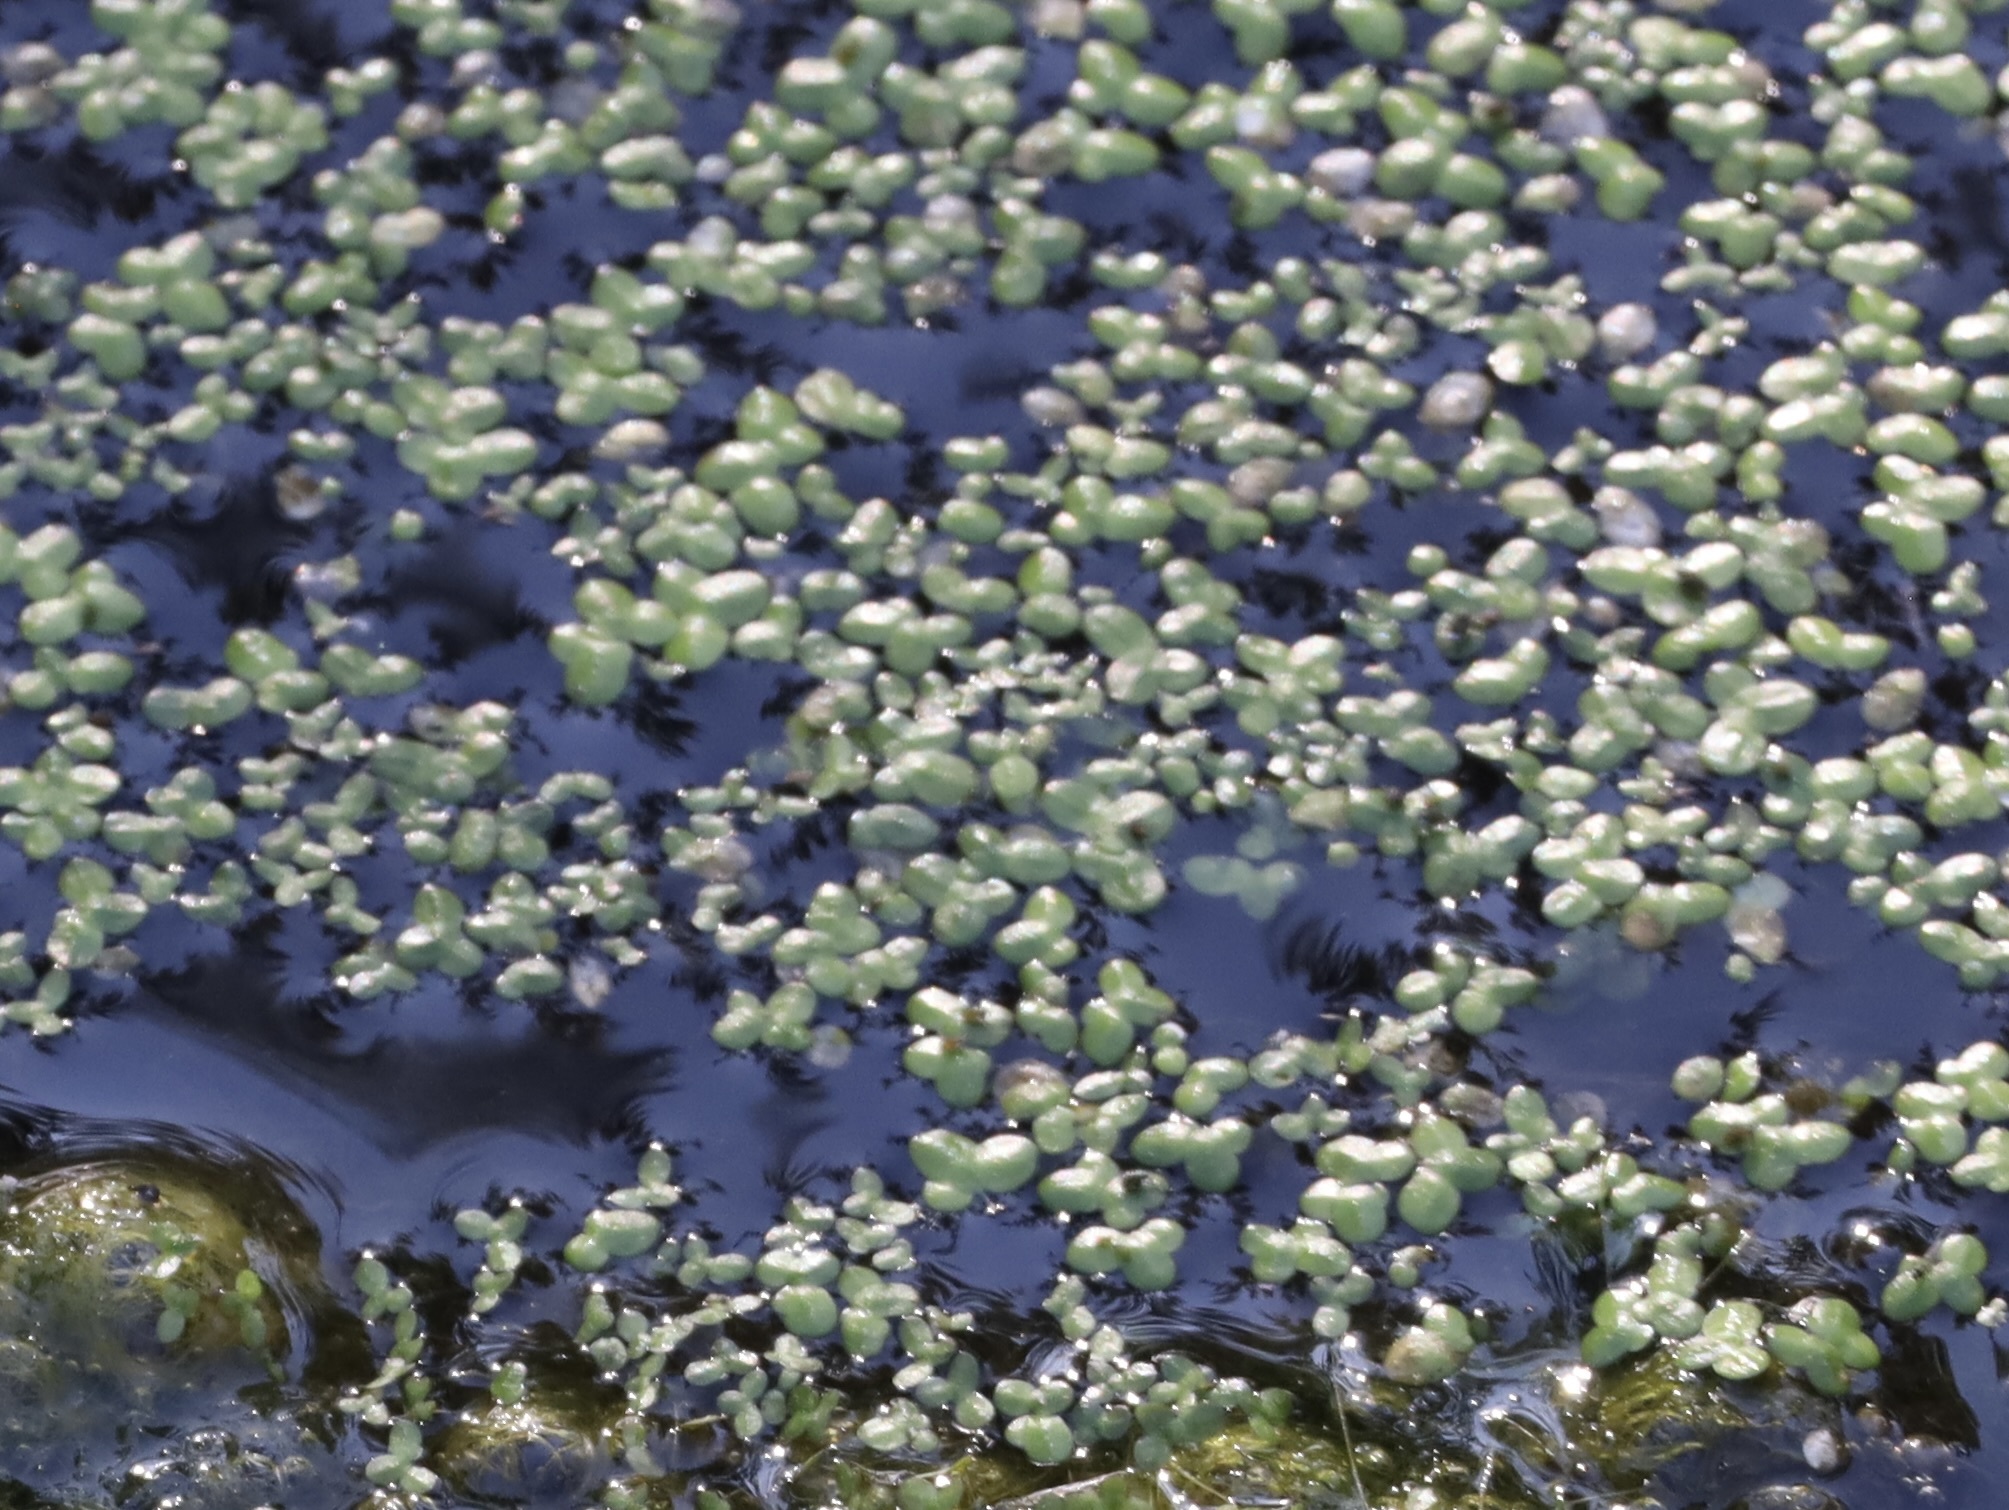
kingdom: Plantae
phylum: Tracheophyta
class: Liliopsida
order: Alismatales
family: Araceae
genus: Lemna
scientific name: Lemna
